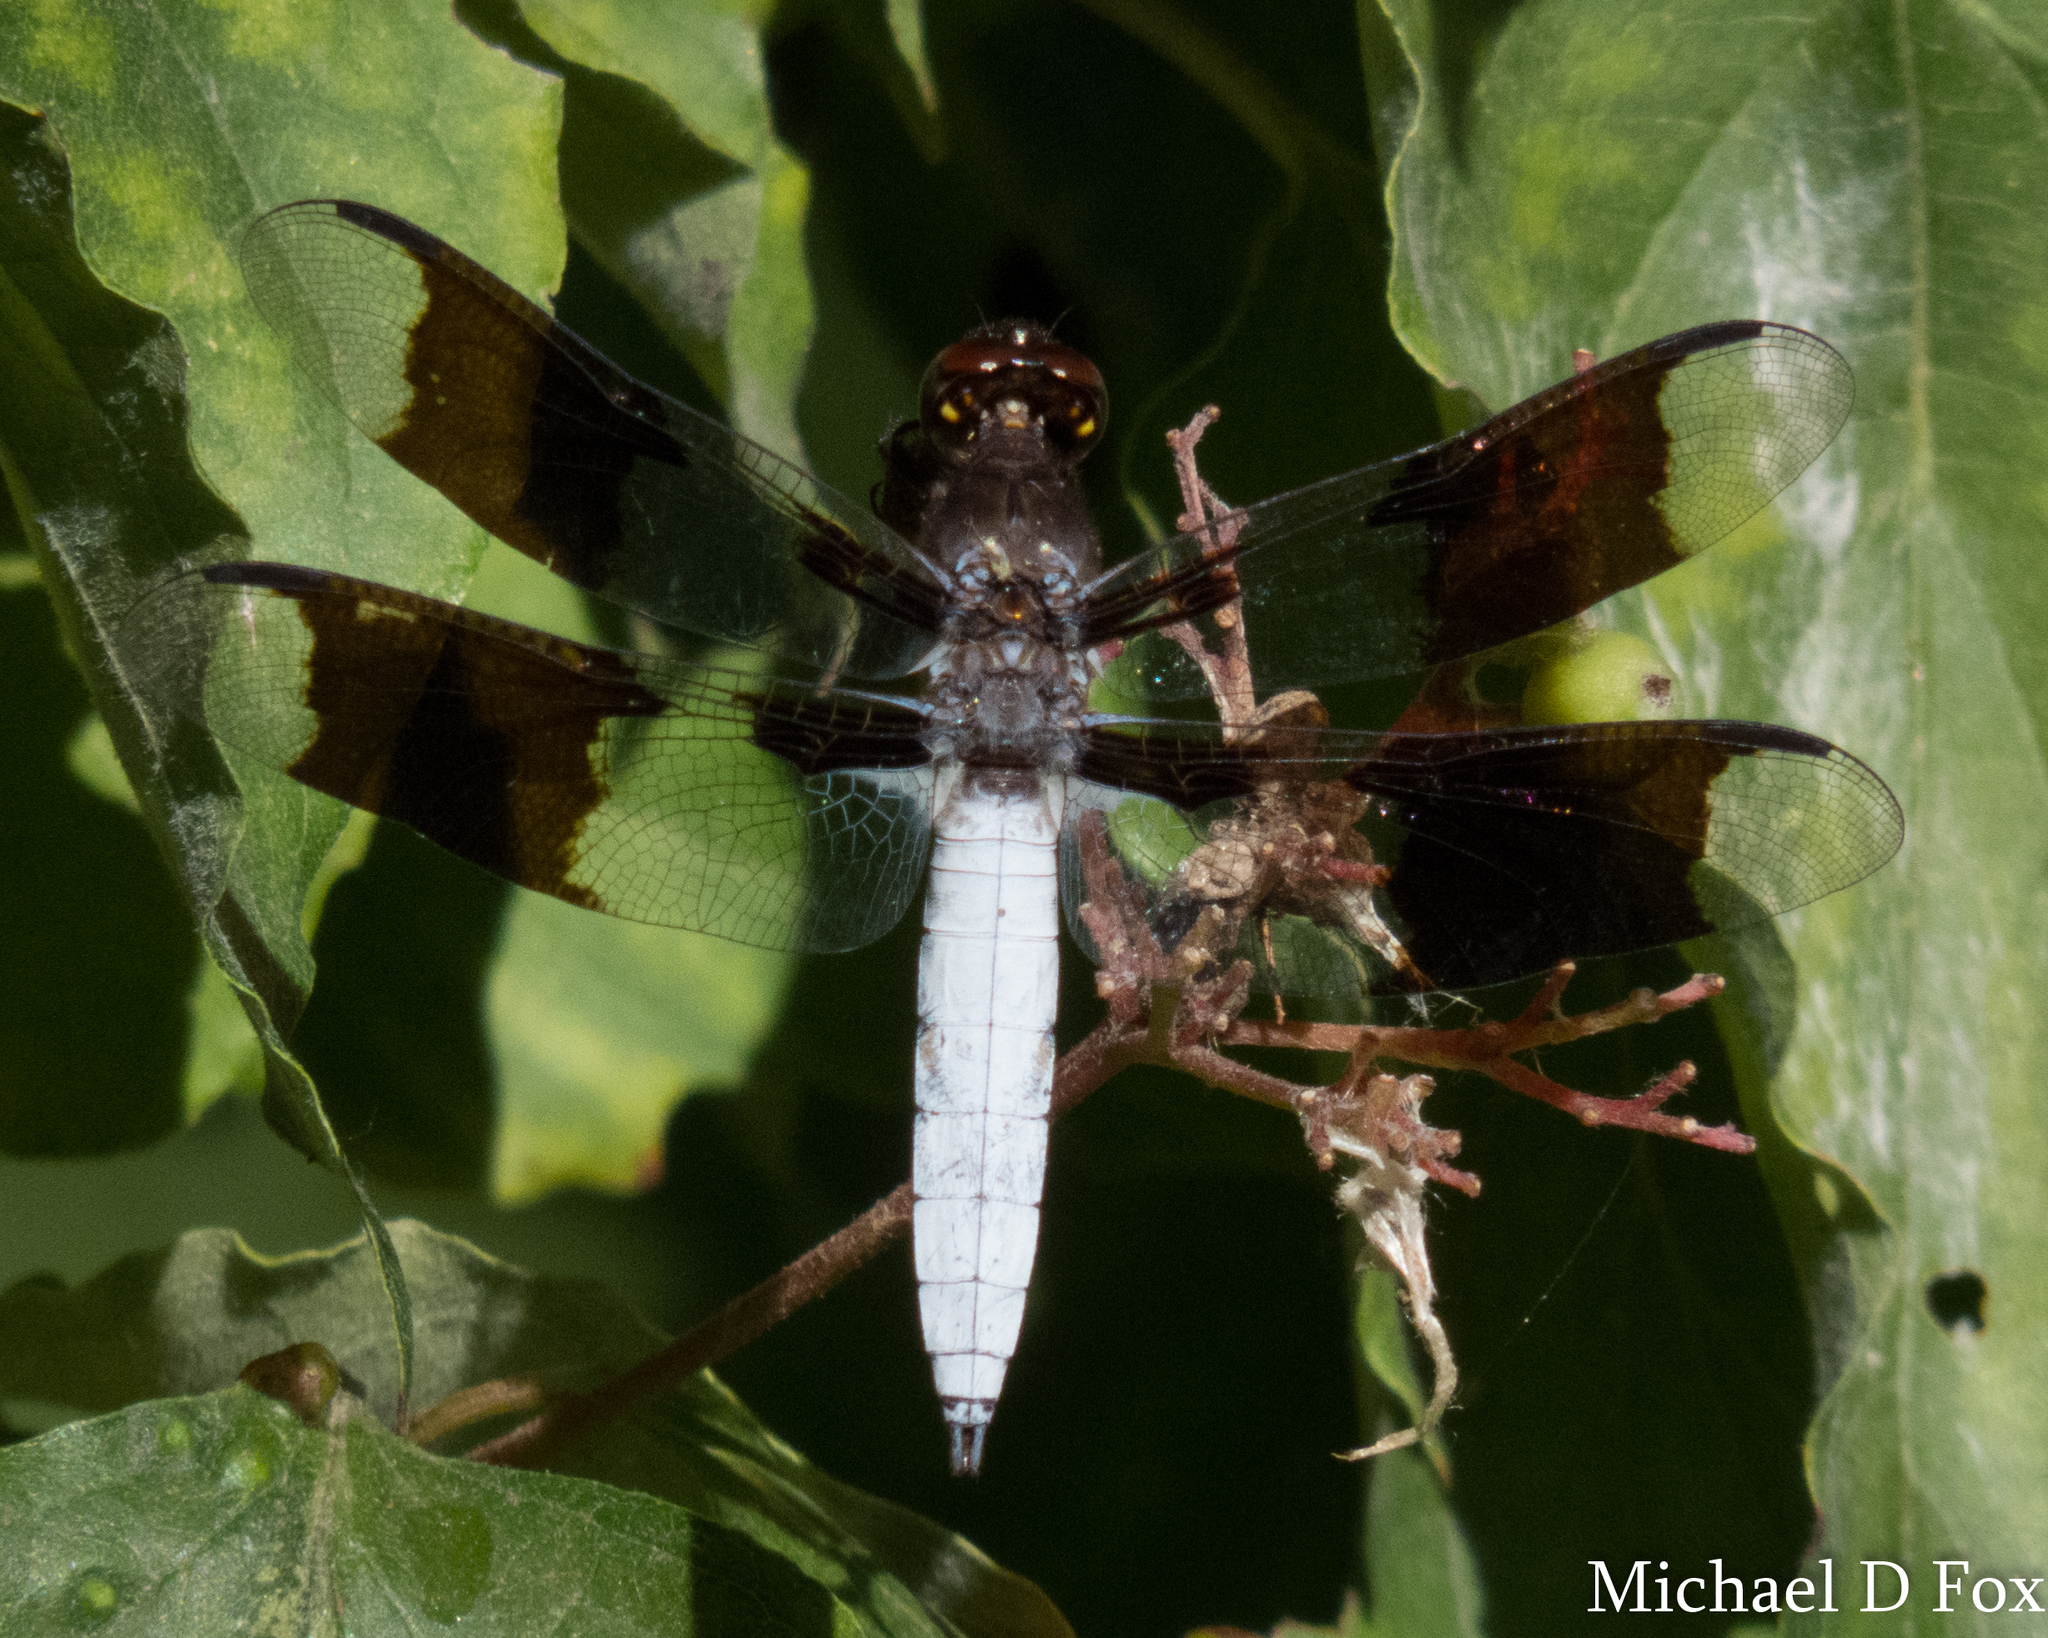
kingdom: Animalia
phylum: Arthropoda
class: Insecta
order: Odonata
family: Libellulidae
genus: Plathemis
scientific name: Plathemis lydia
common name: Common whitetail
